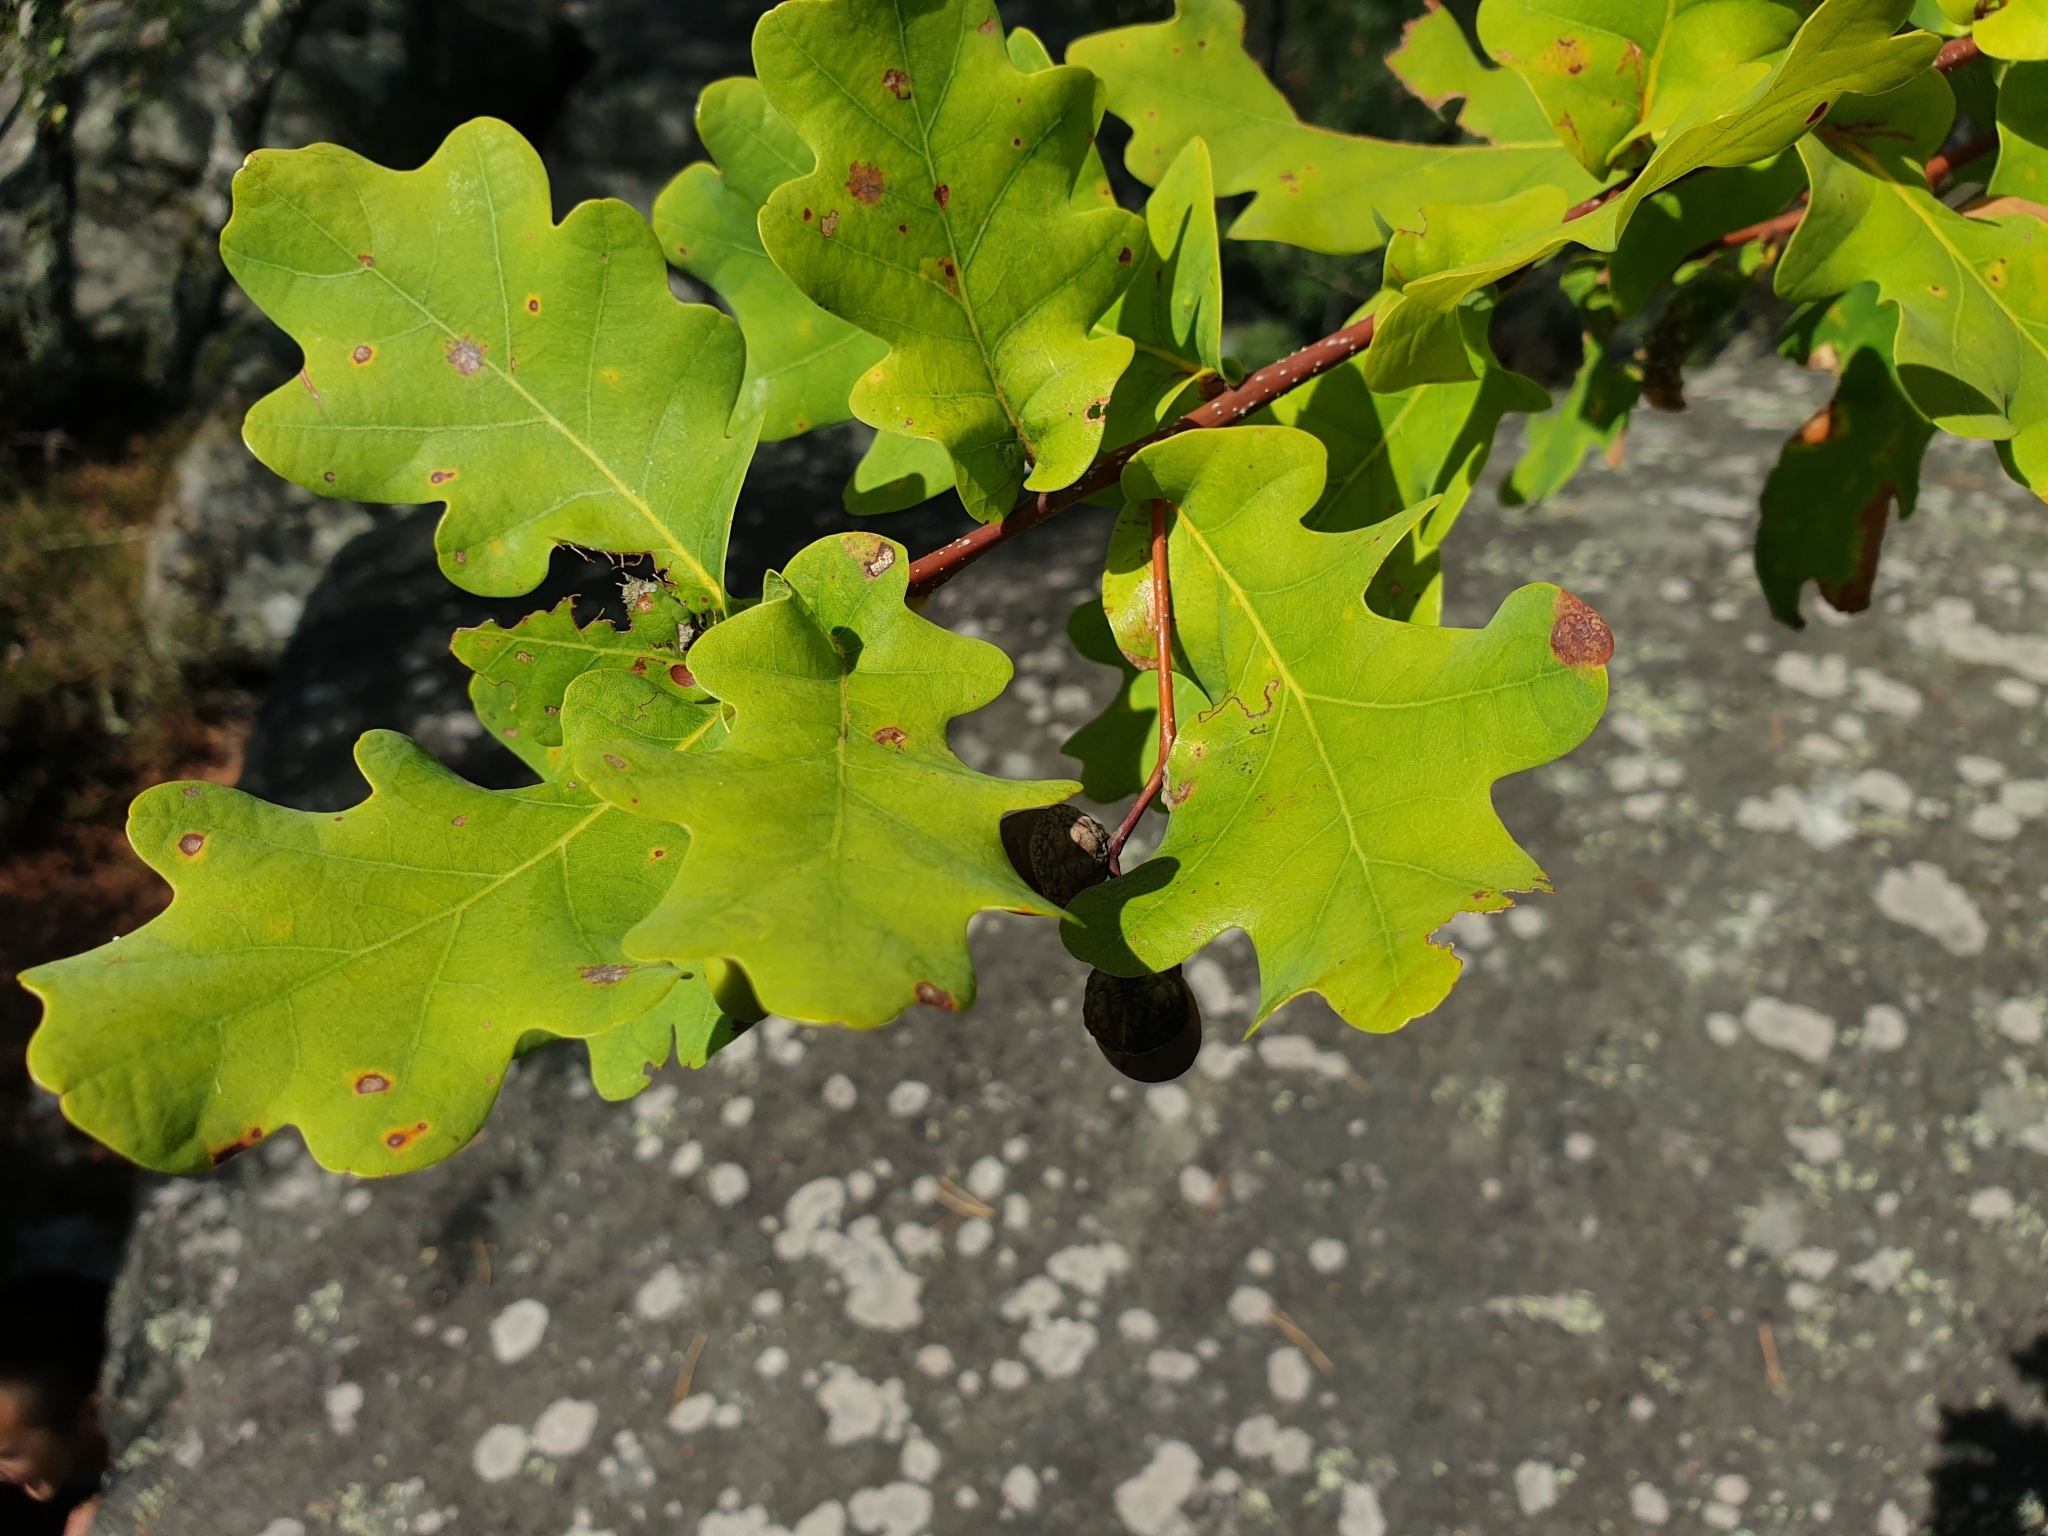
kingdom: Plantae
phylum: Tracheophyta
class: Magnoliopsida
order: Fagales
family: Fagaceae
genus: Quercus
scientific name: Quercus robur
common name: Pedunculate oak
